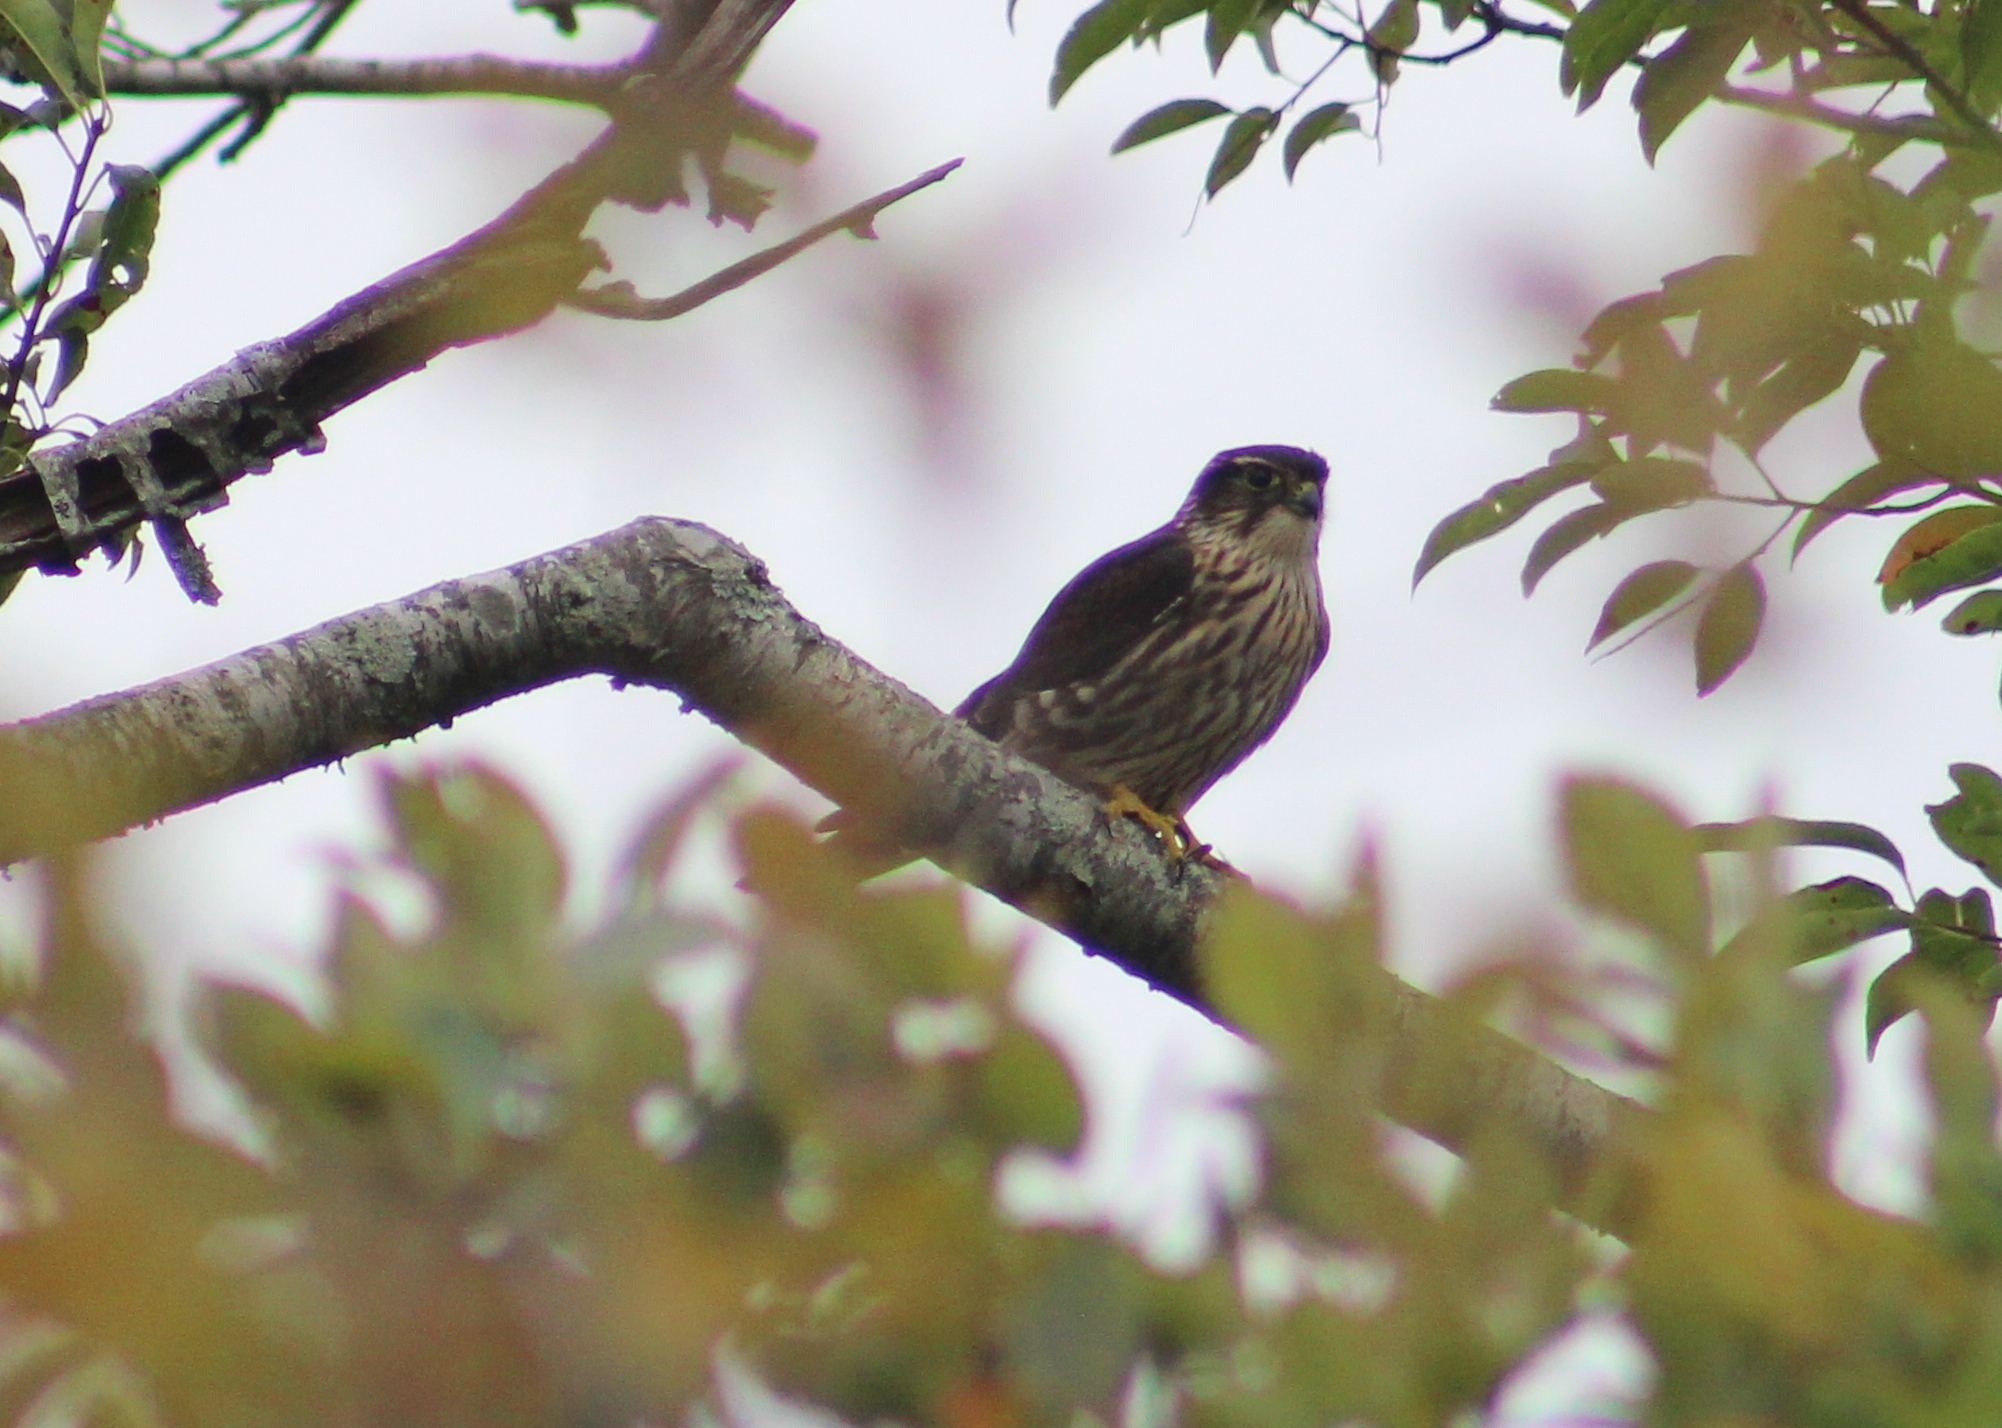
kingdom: Animalia
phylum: Chordata
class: Aves
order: Falconiformes
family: Falconidae
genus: Falco
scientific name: Falco columbarius
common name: Merlin
